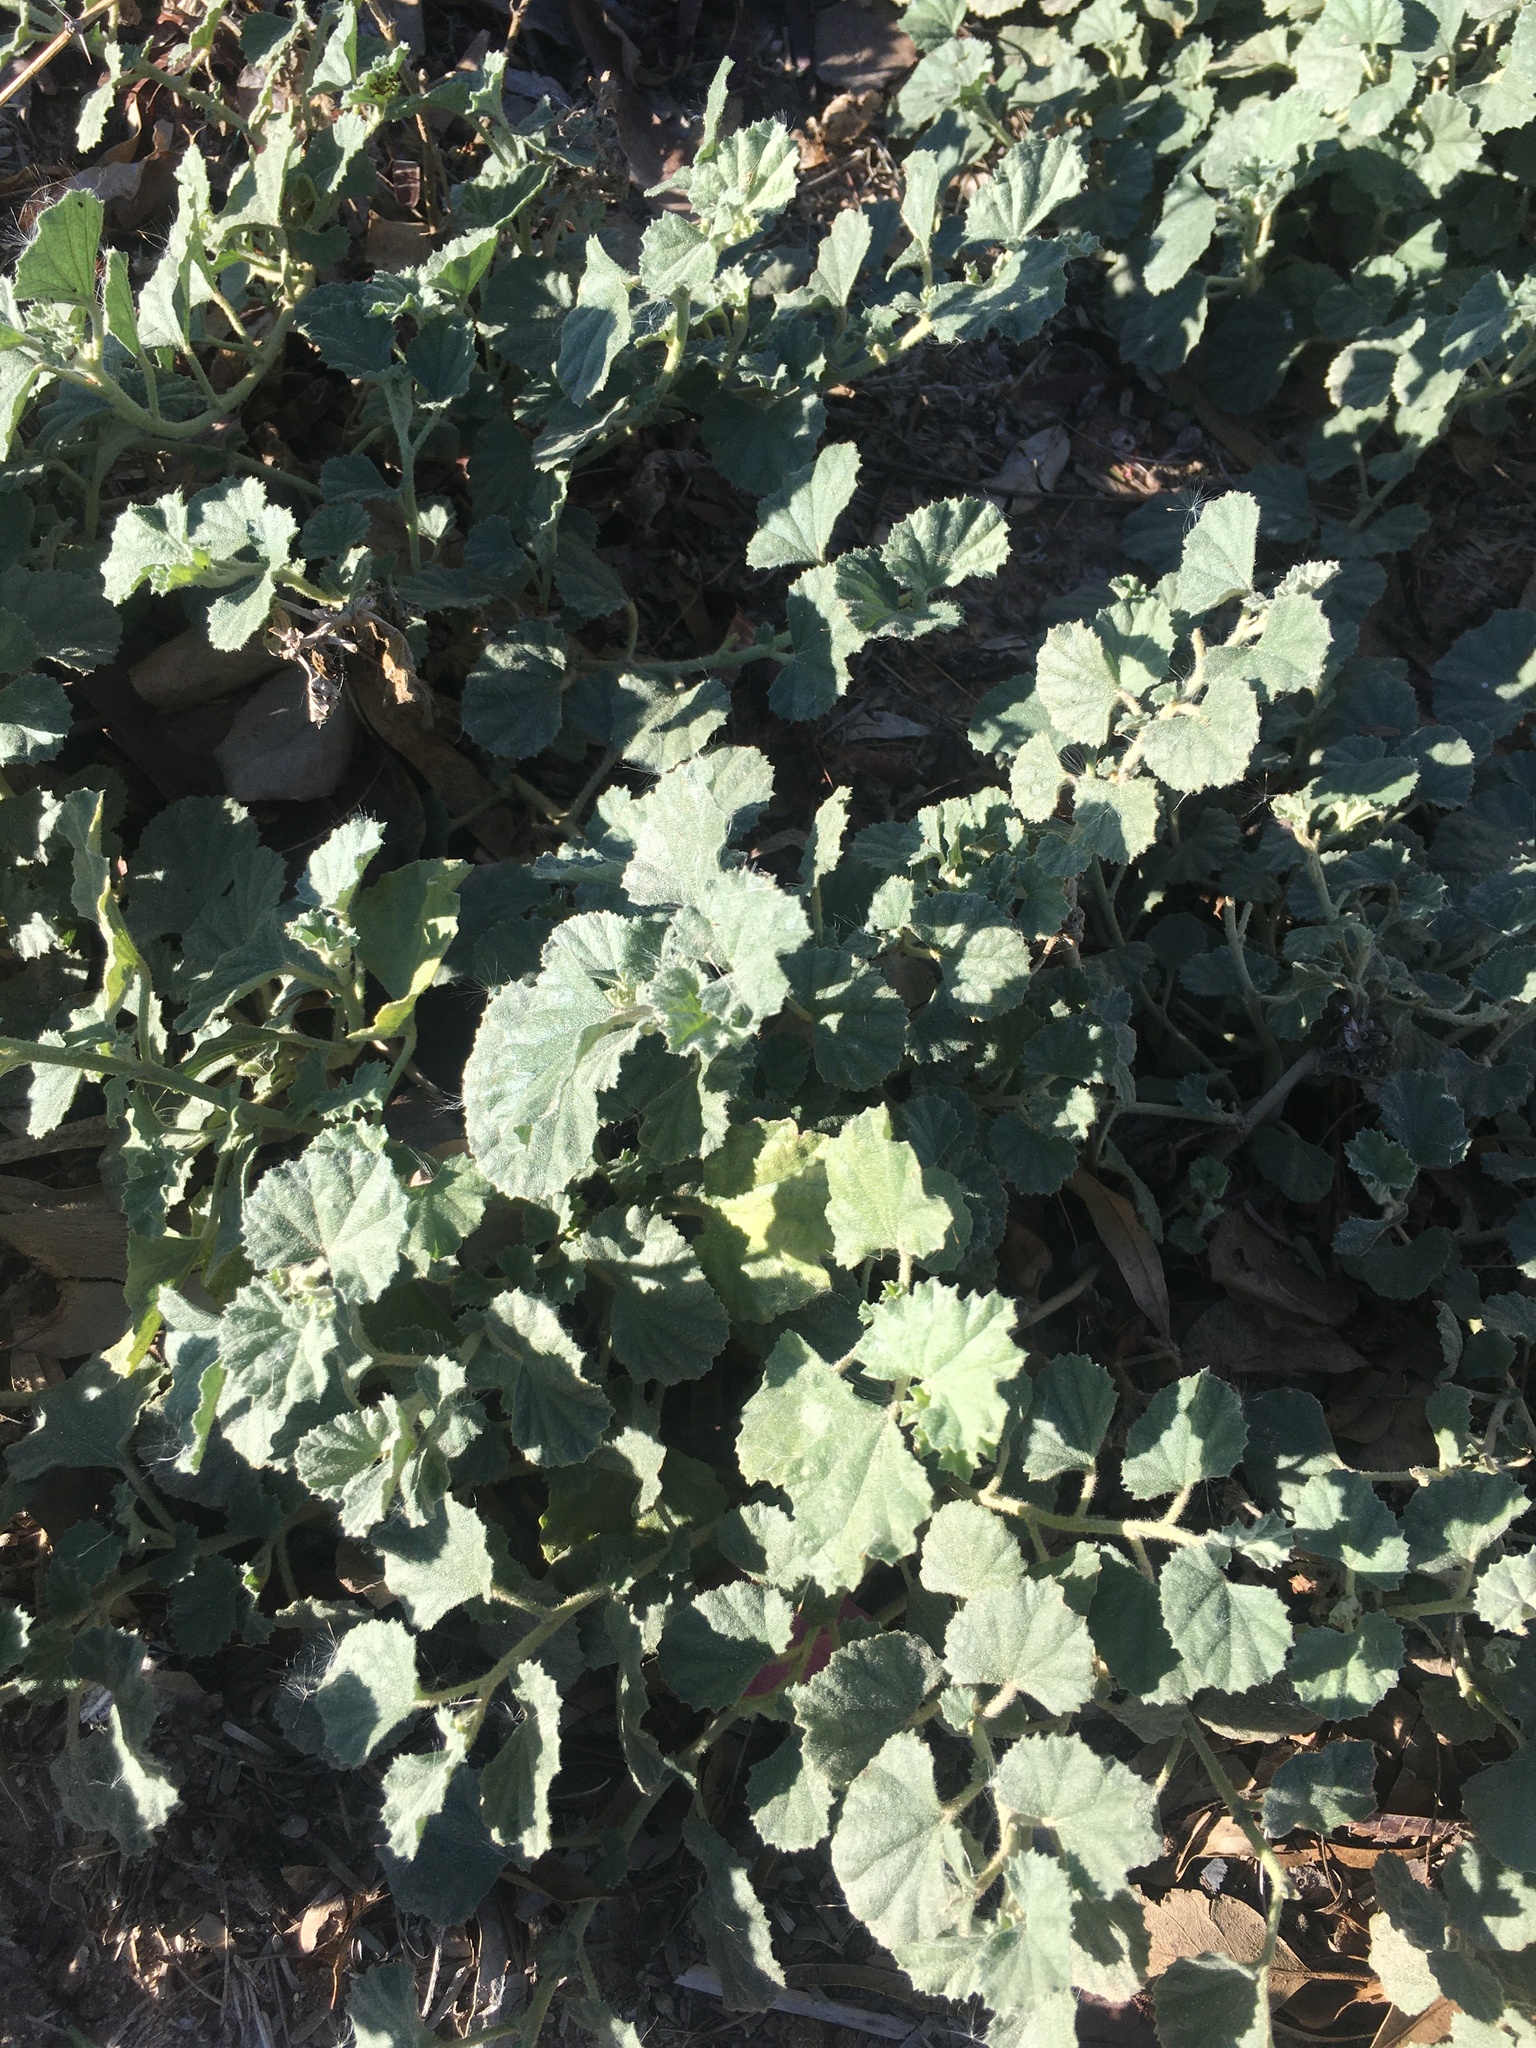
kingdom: Plantae
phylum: Tracheophyta
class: Magnoliopsida
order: Malvales
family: Malvaceae
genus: Malvella
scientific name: Malvella leprosa
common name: Alkali-mallow
